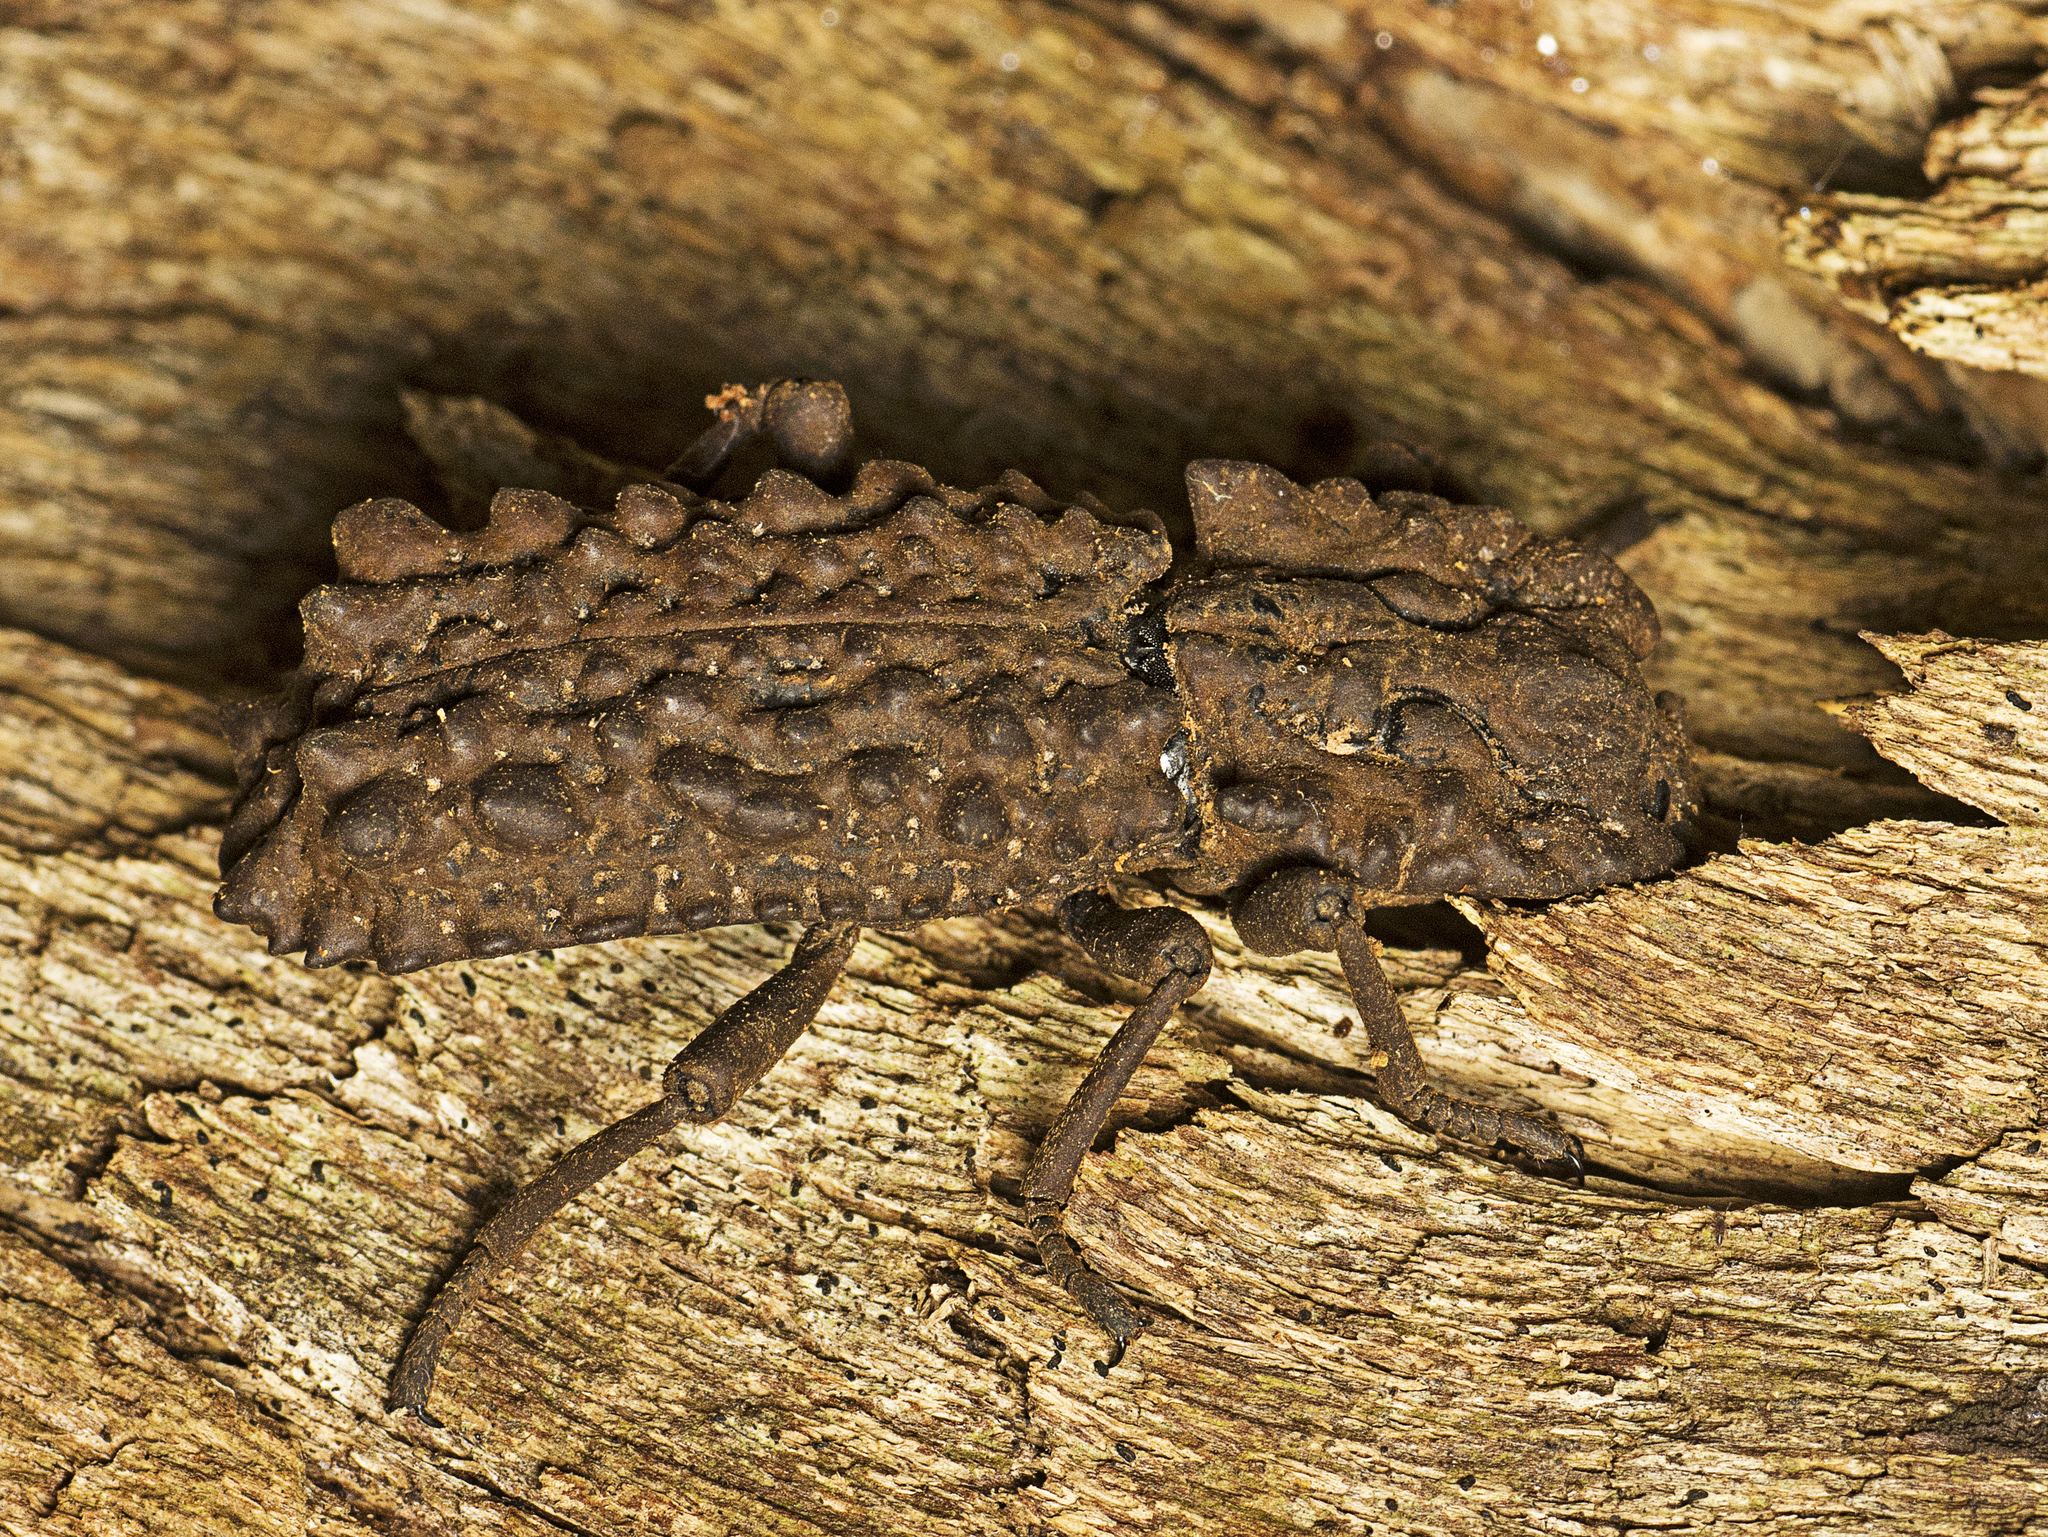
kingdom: Animalia
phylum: Arthropoda
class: Insecta
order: Coleoptera
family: Zopheridae
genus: Zopherosis
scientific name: Zopherosis
